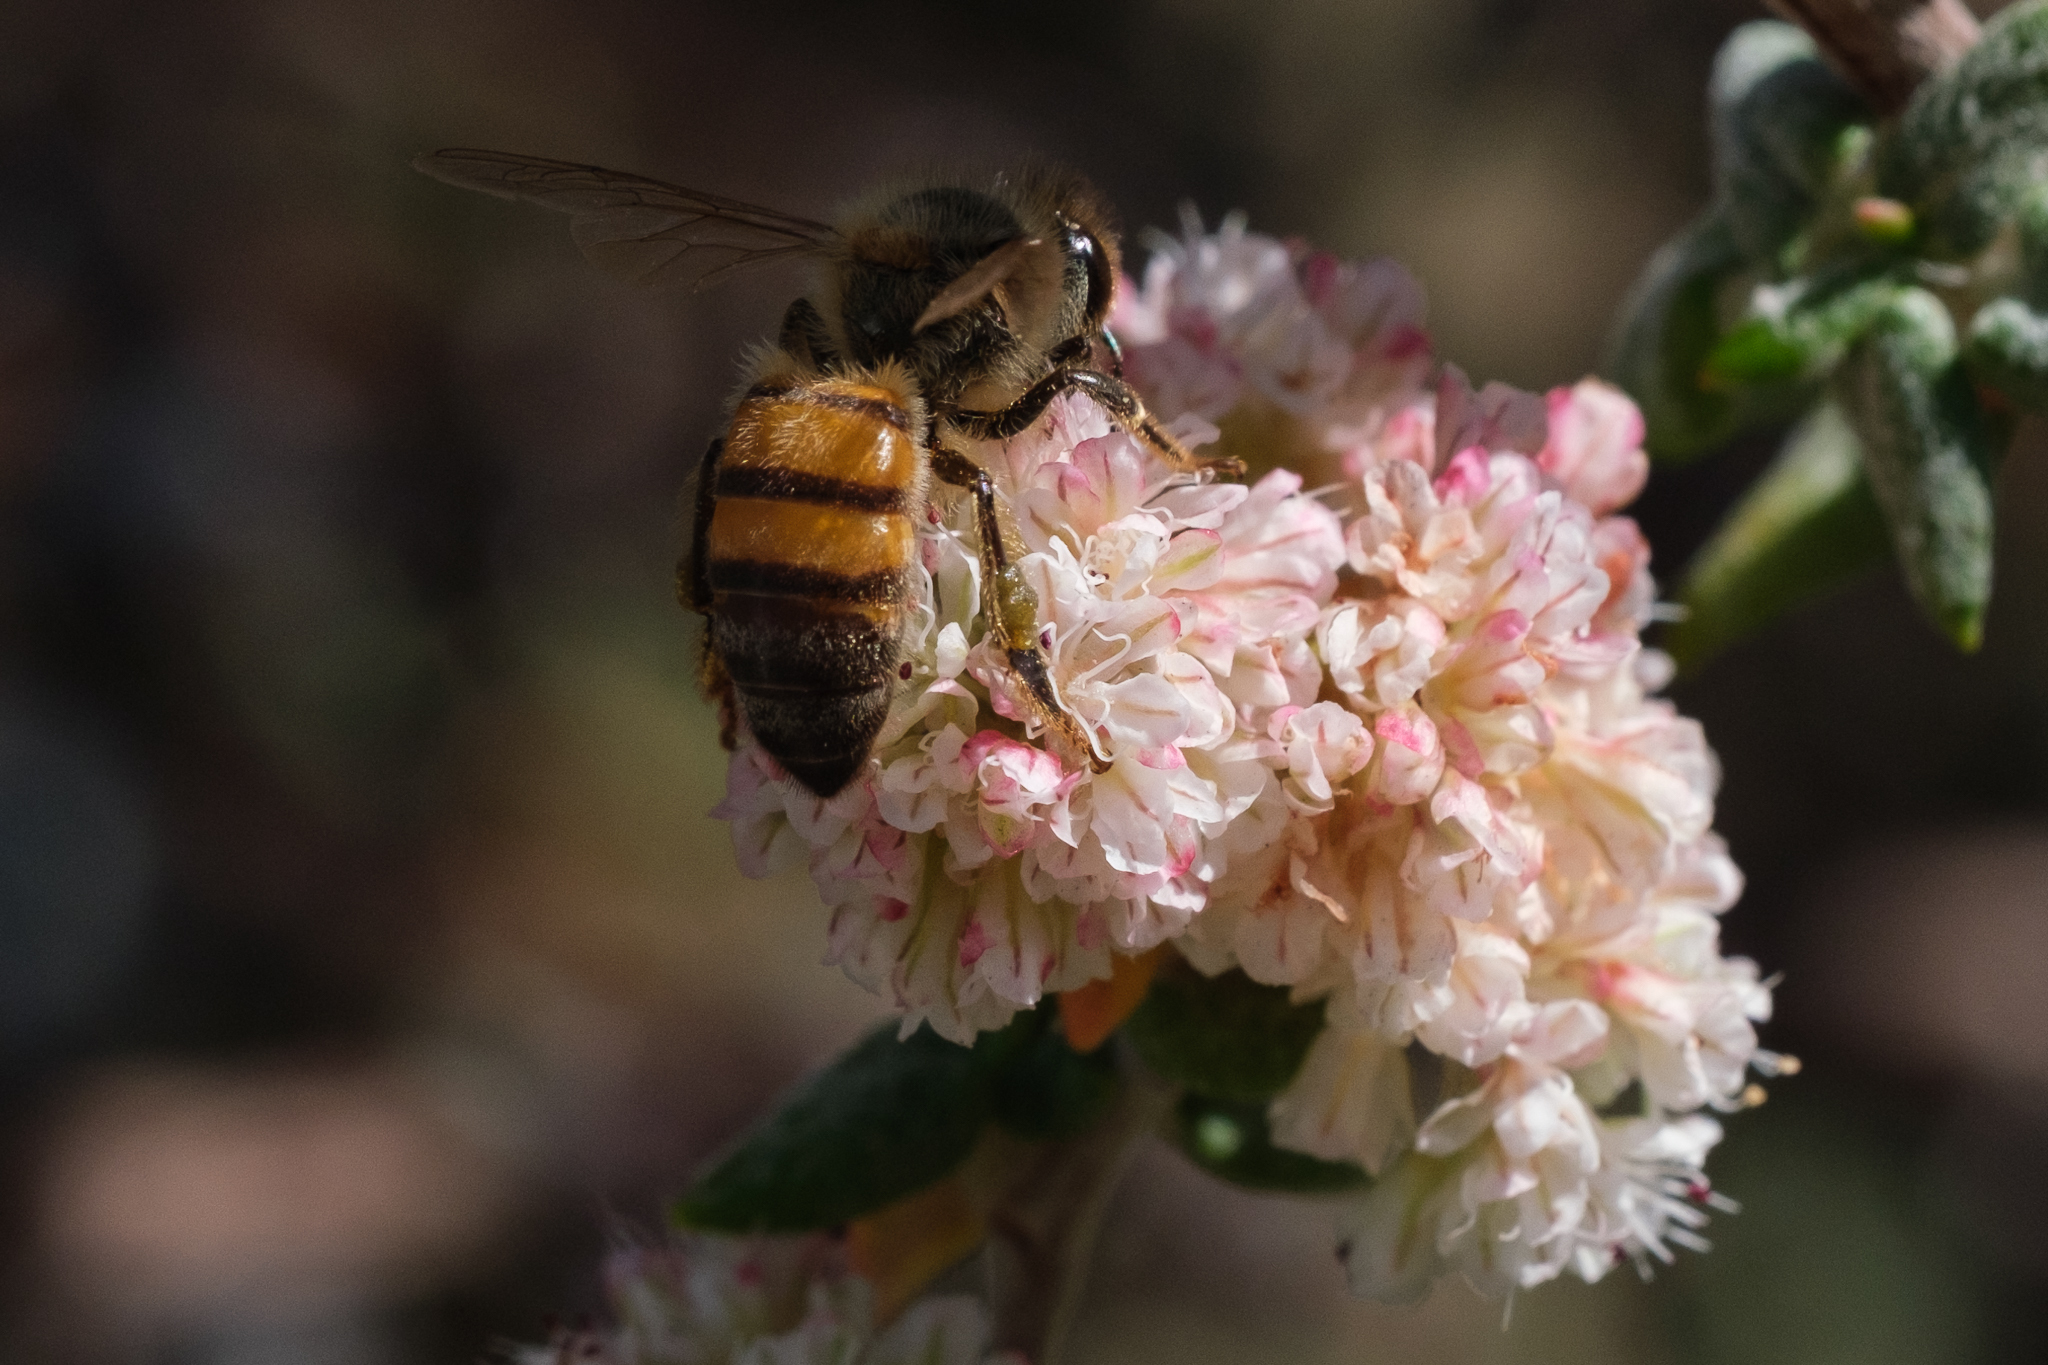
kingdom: Animalia
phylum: Arthropoda
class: Insecta
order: Hymenoptera
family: Apidae
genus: Apis
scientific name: Apis mellifera
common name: Honey bee
